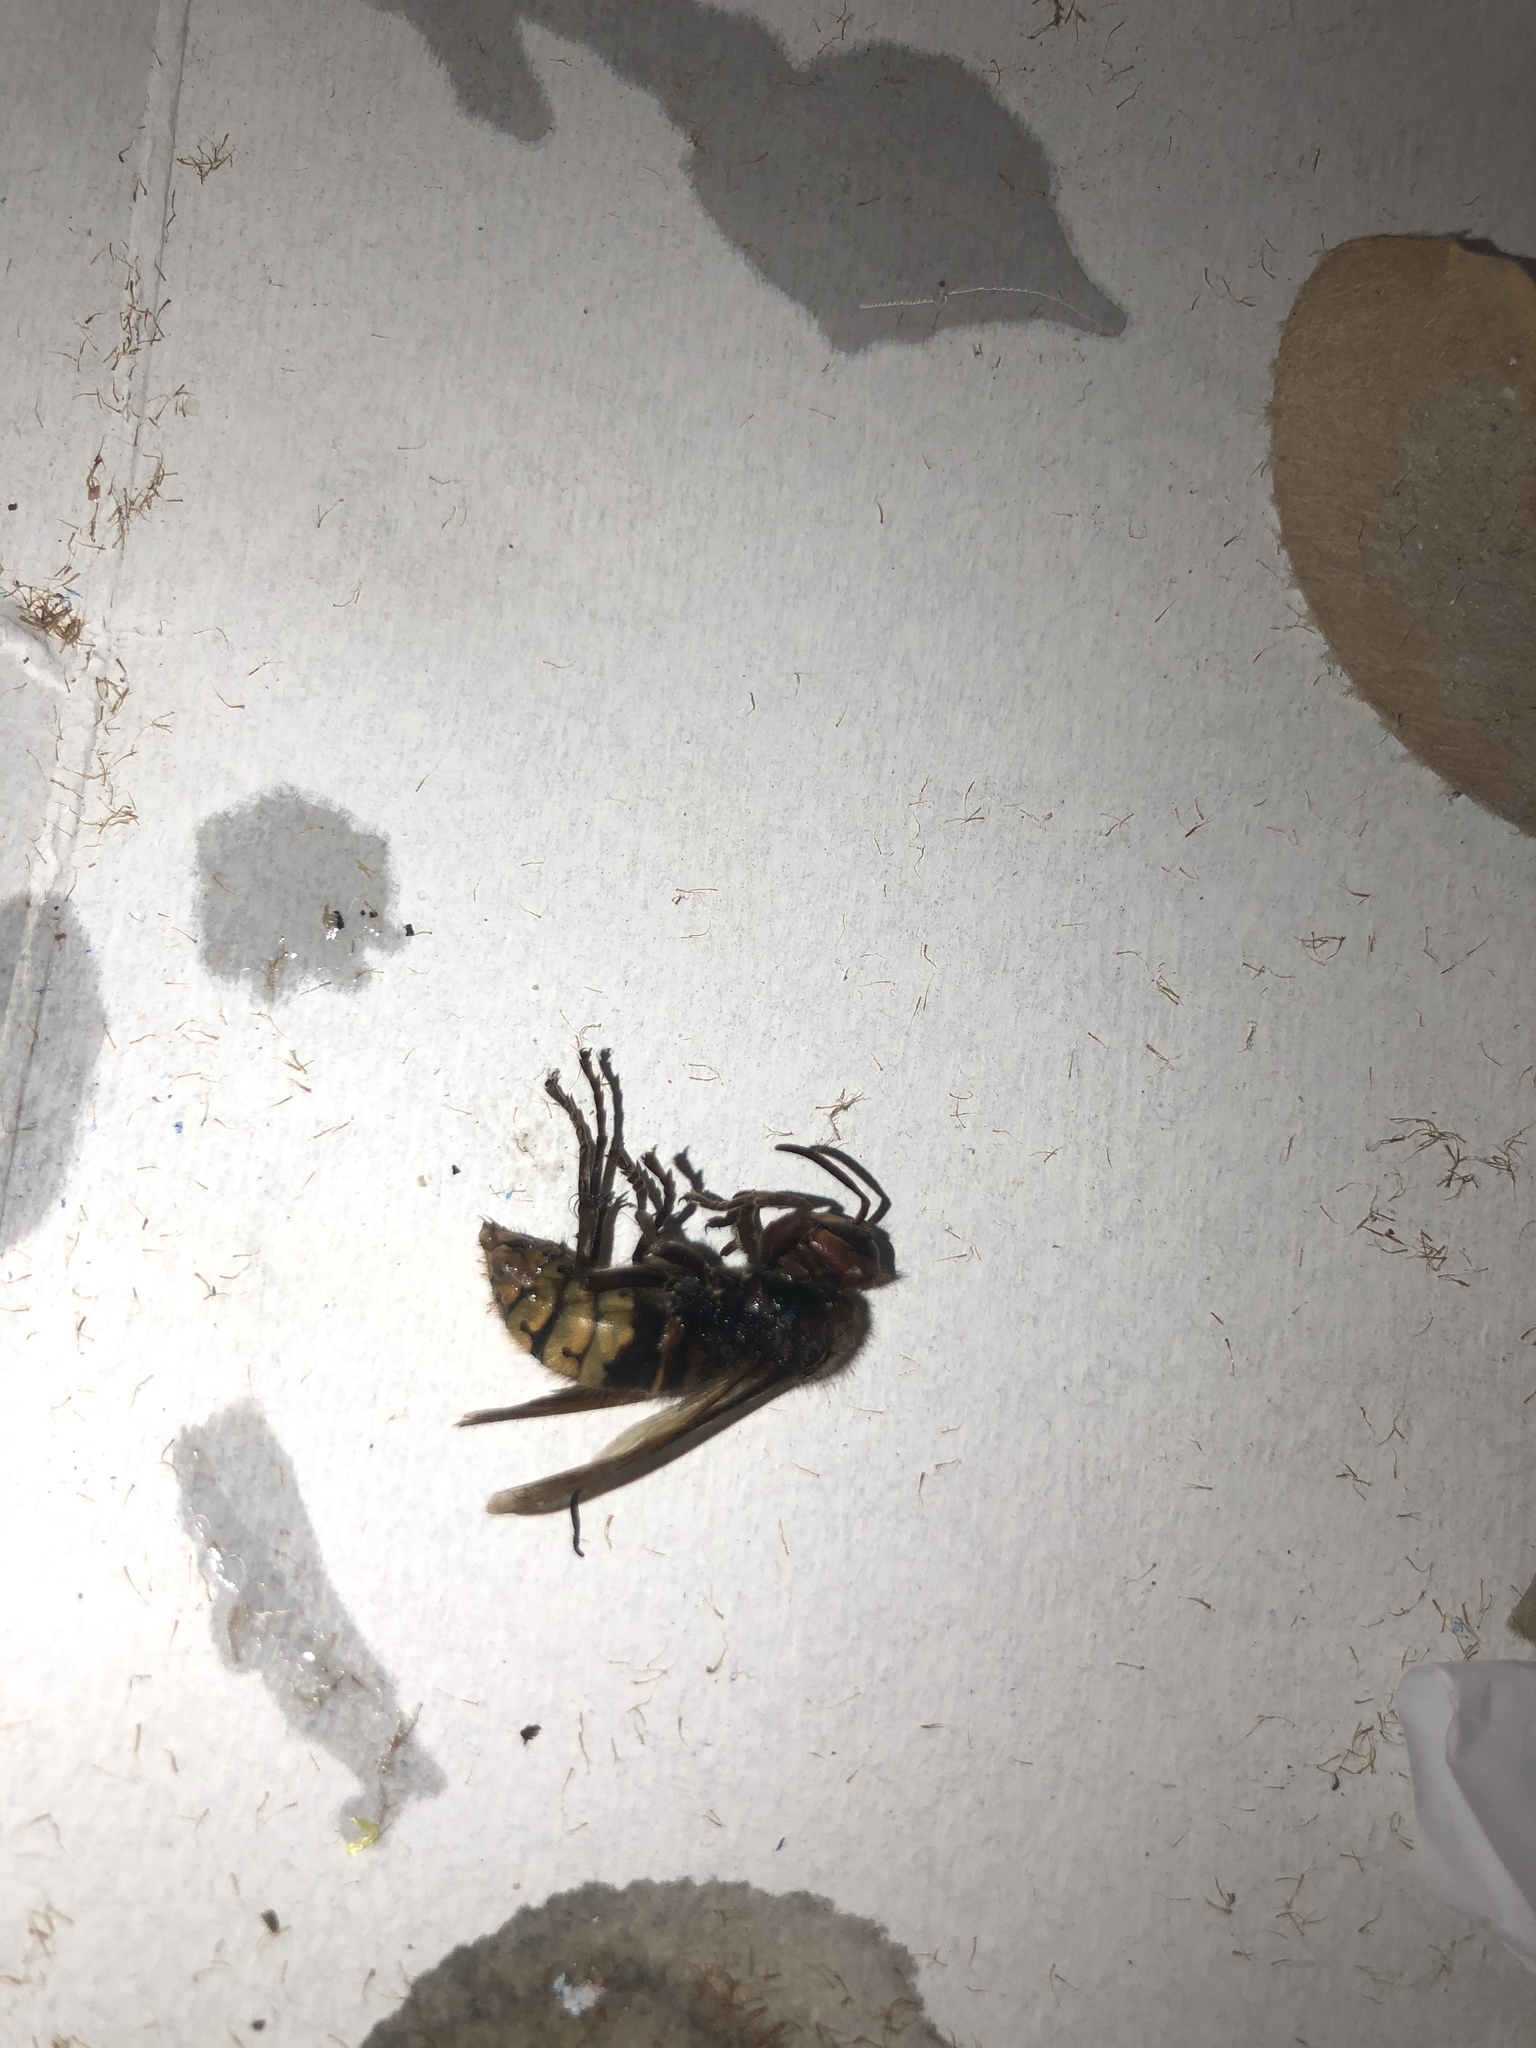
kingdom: Animalia
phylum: Arthropoda
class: Insecta
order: Hymenoptera
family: Vespidae
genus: Vespa
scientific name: Vespa crabro
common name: Hornet
